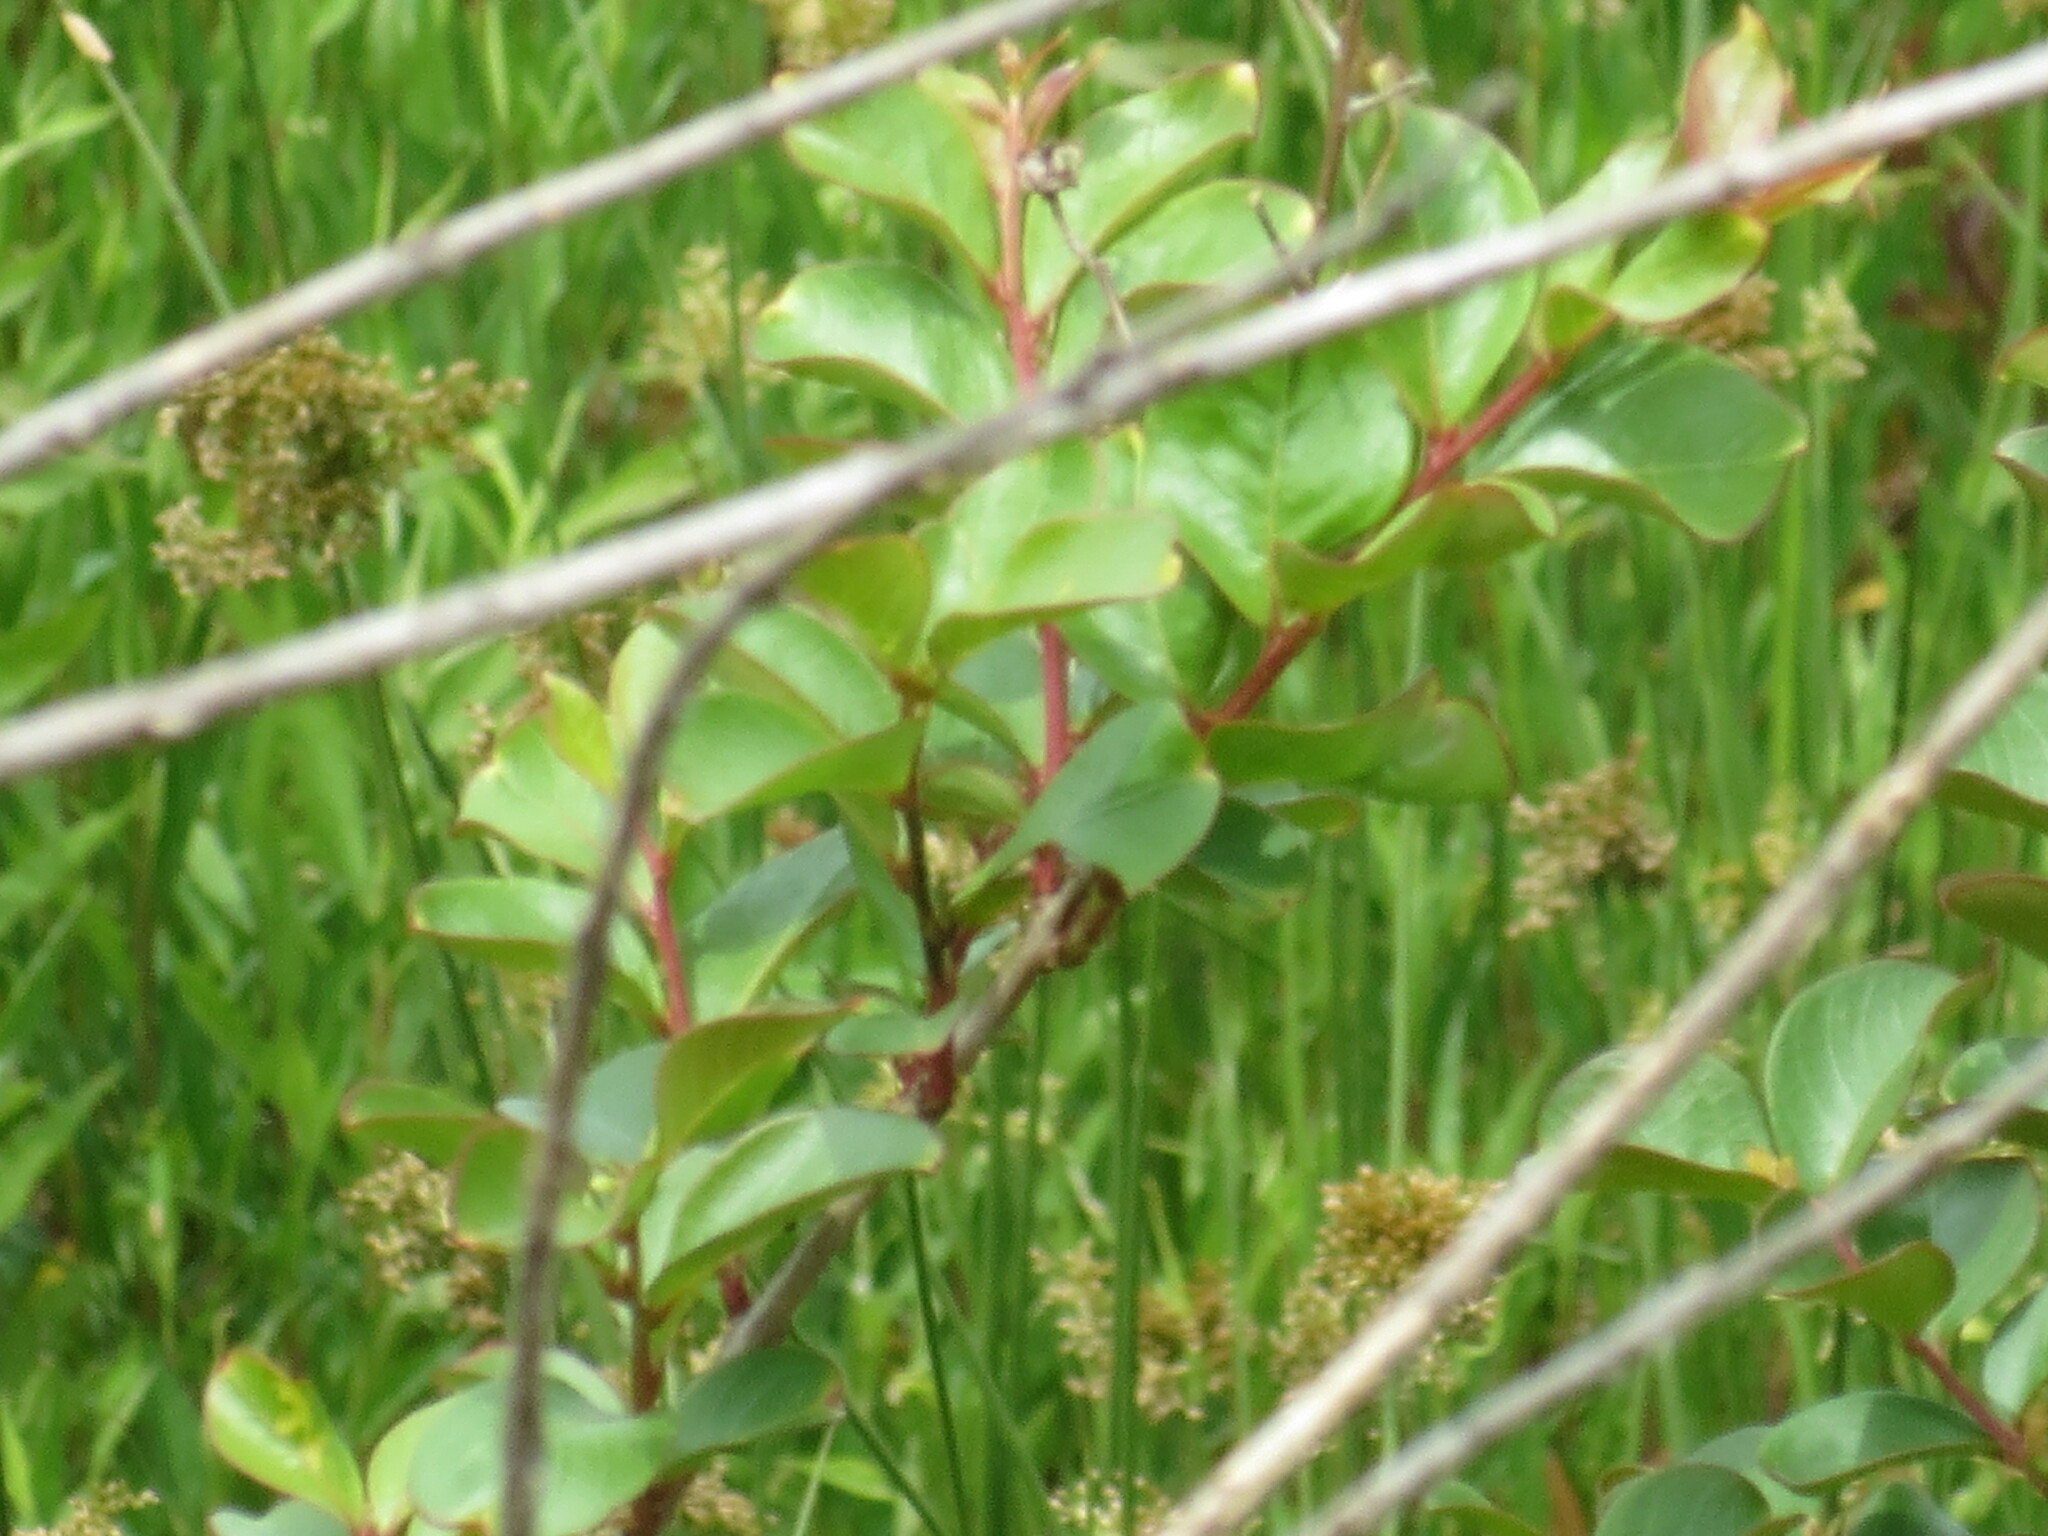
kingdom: Plantae
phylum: Tracheophyta
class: Magnoliopsida
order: Myrtales
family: Lythraceae
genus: Lagerstroemia
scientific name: Lagerstroemia indica
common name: Crape-myrtle
